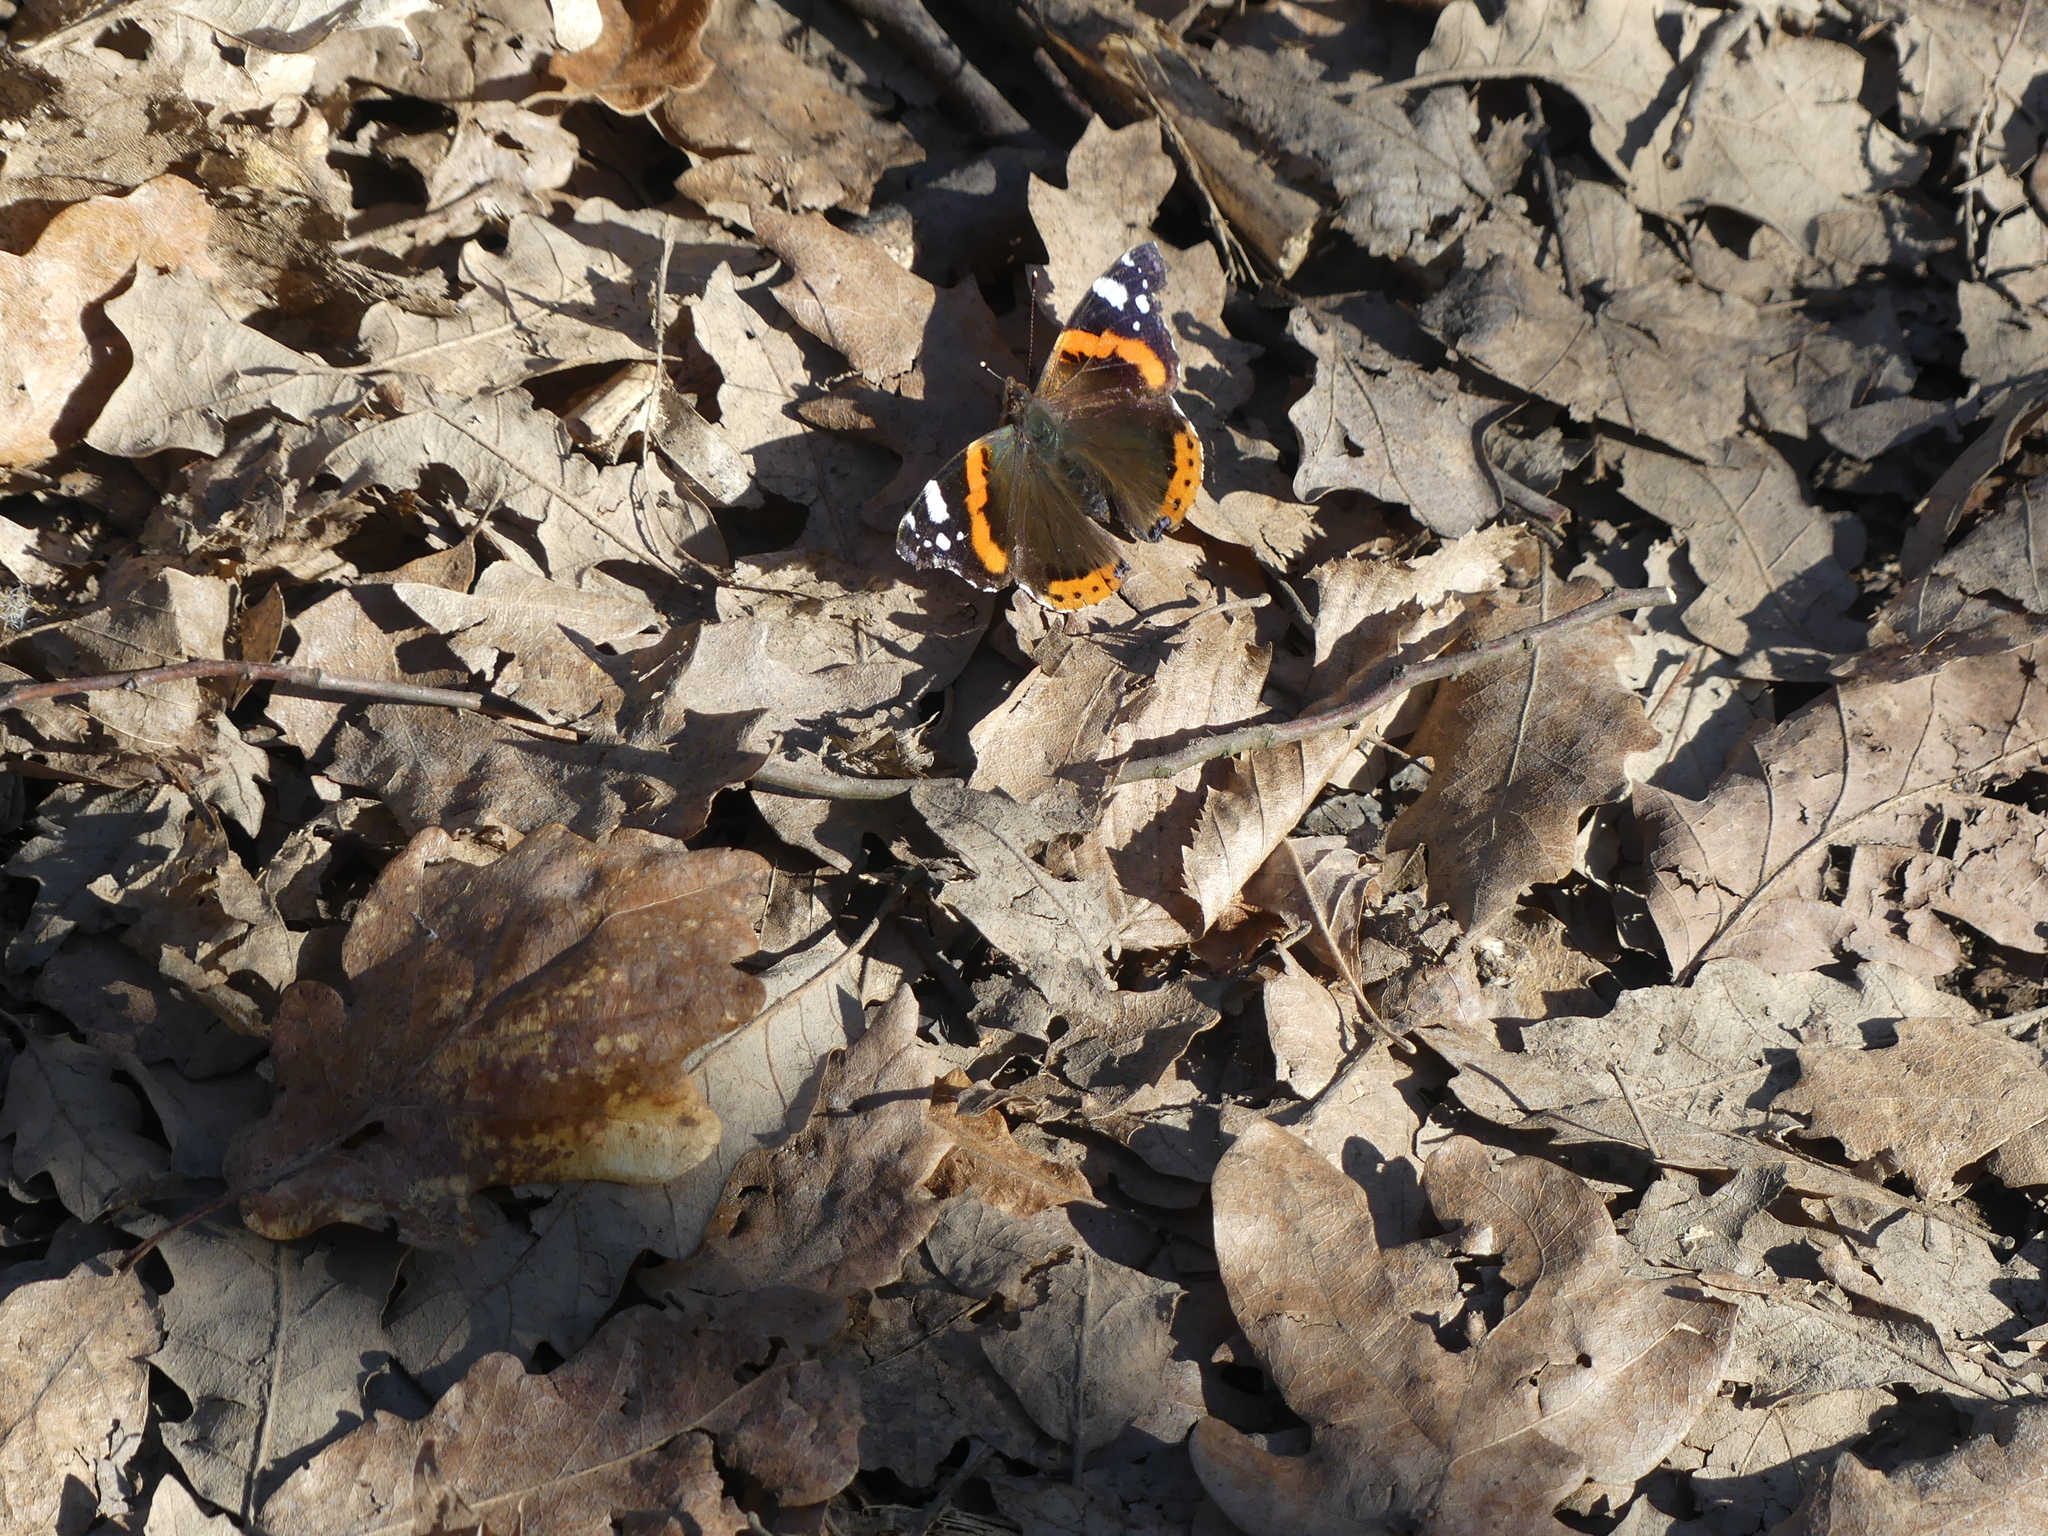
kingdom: Animalia
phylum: Arthropoda
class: Insecta
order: Lepidoptera
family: Nymphalidae
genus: Vanessa
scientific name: Vanessa atalanta
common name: Red admiral
